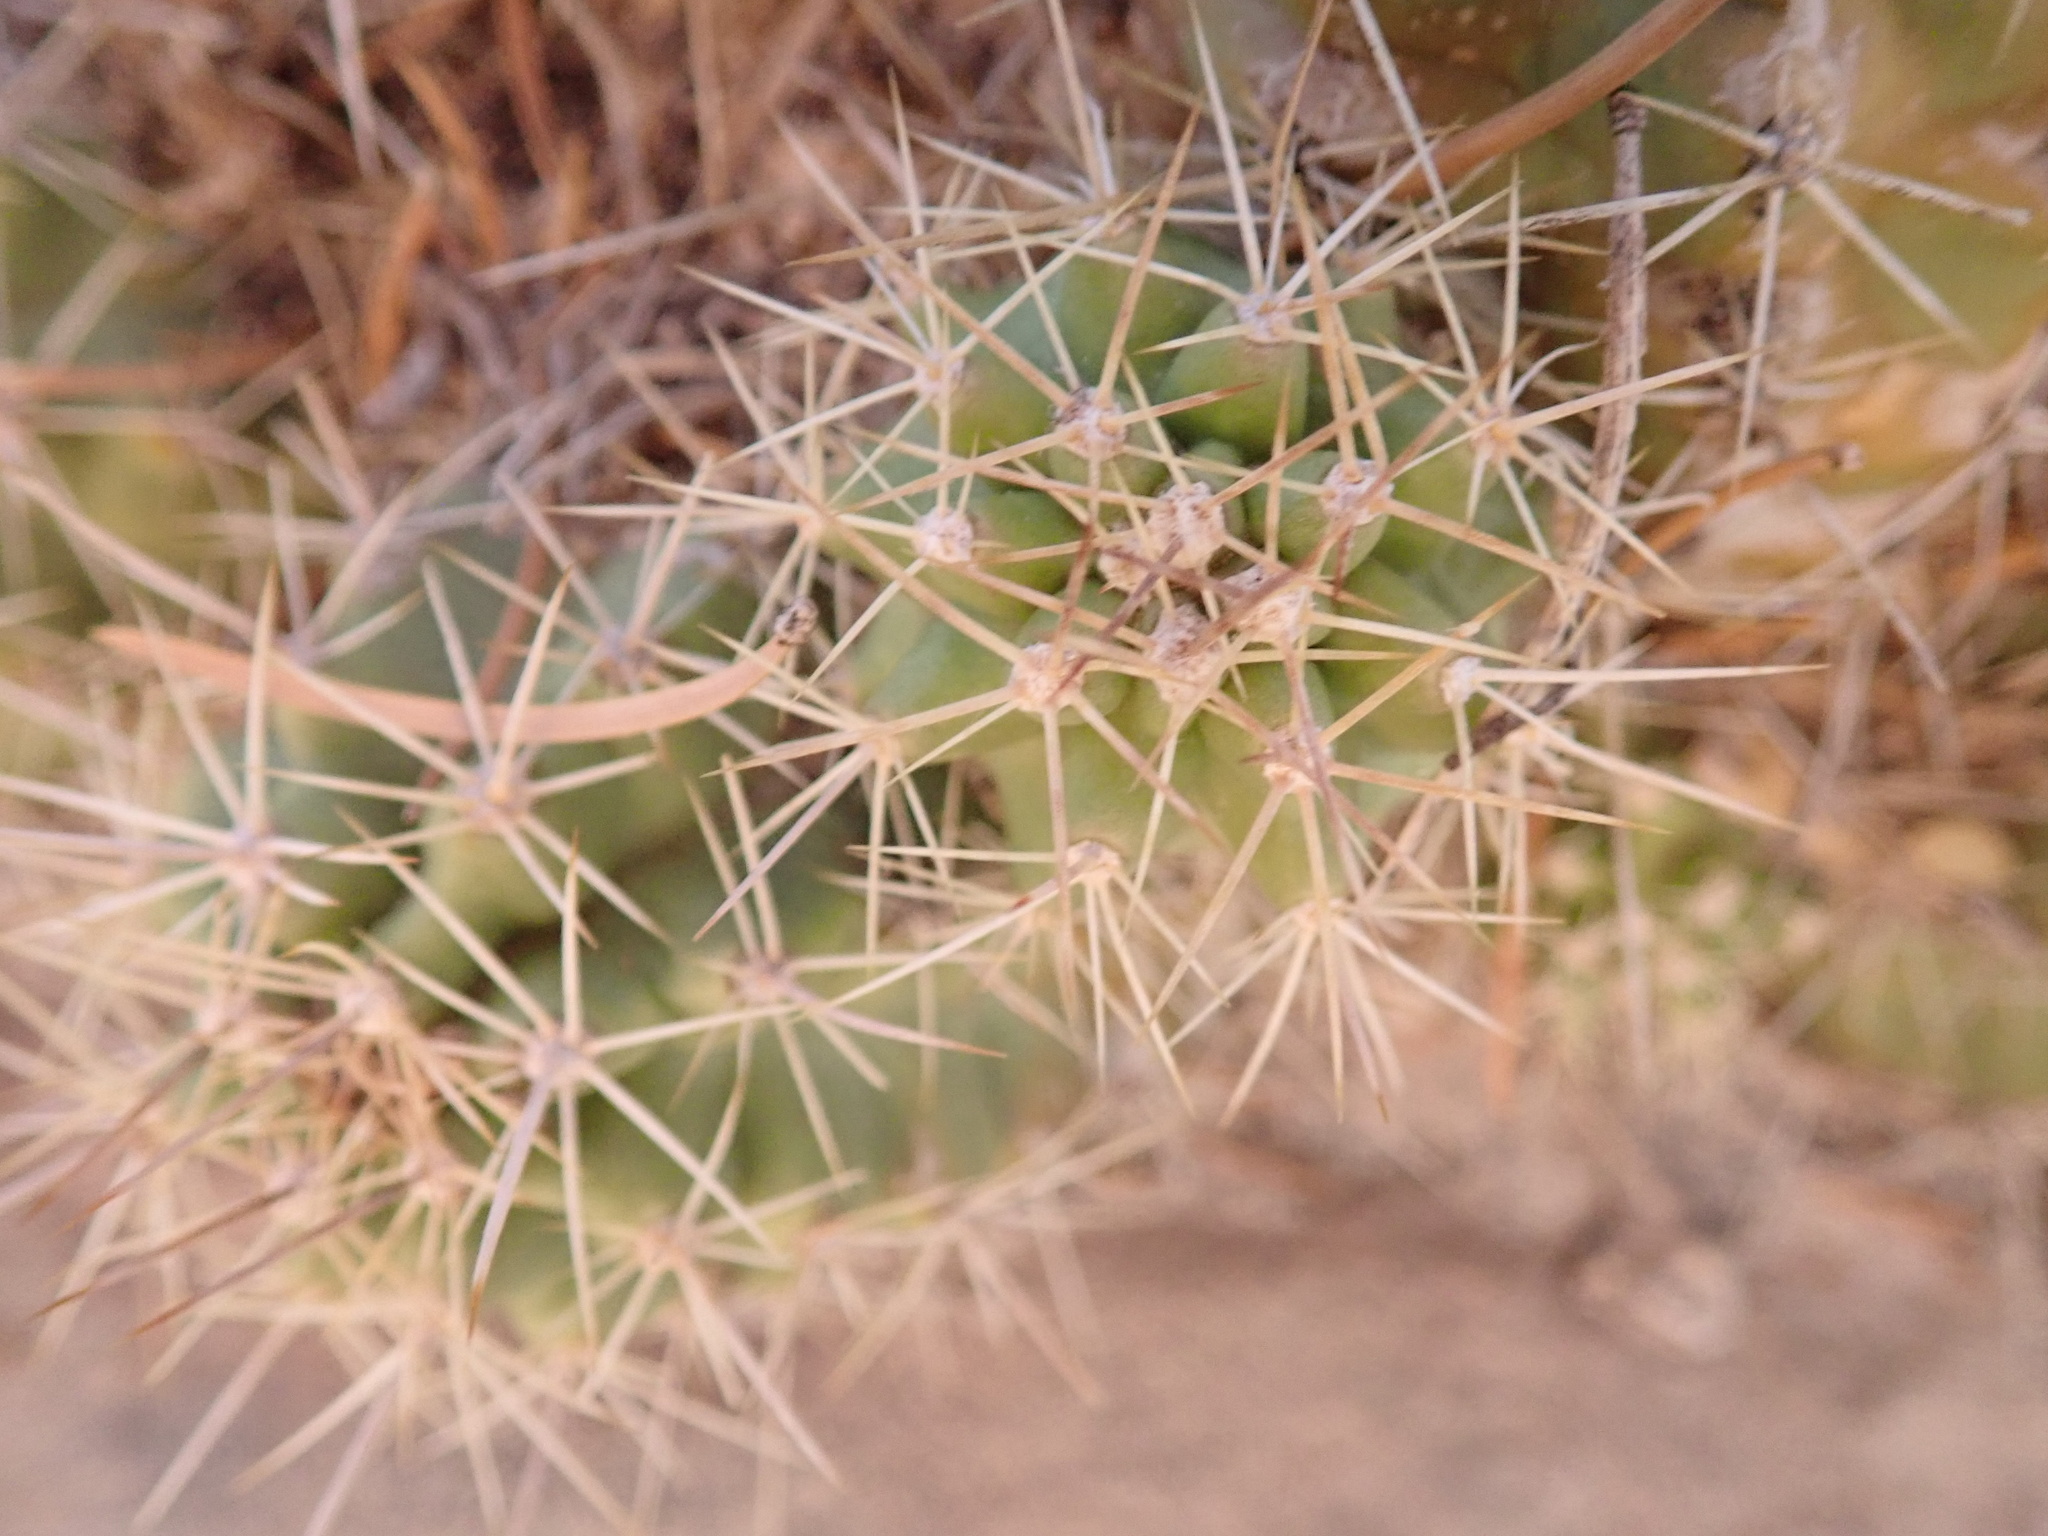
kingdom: Plantae
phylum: Tracheophyta
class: Magnoliopsida
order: Caryophyllales
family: Cactaceae
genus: Echinocereus
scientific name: Echinocereus triglochidiatus
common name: Claretcup hedgehog
